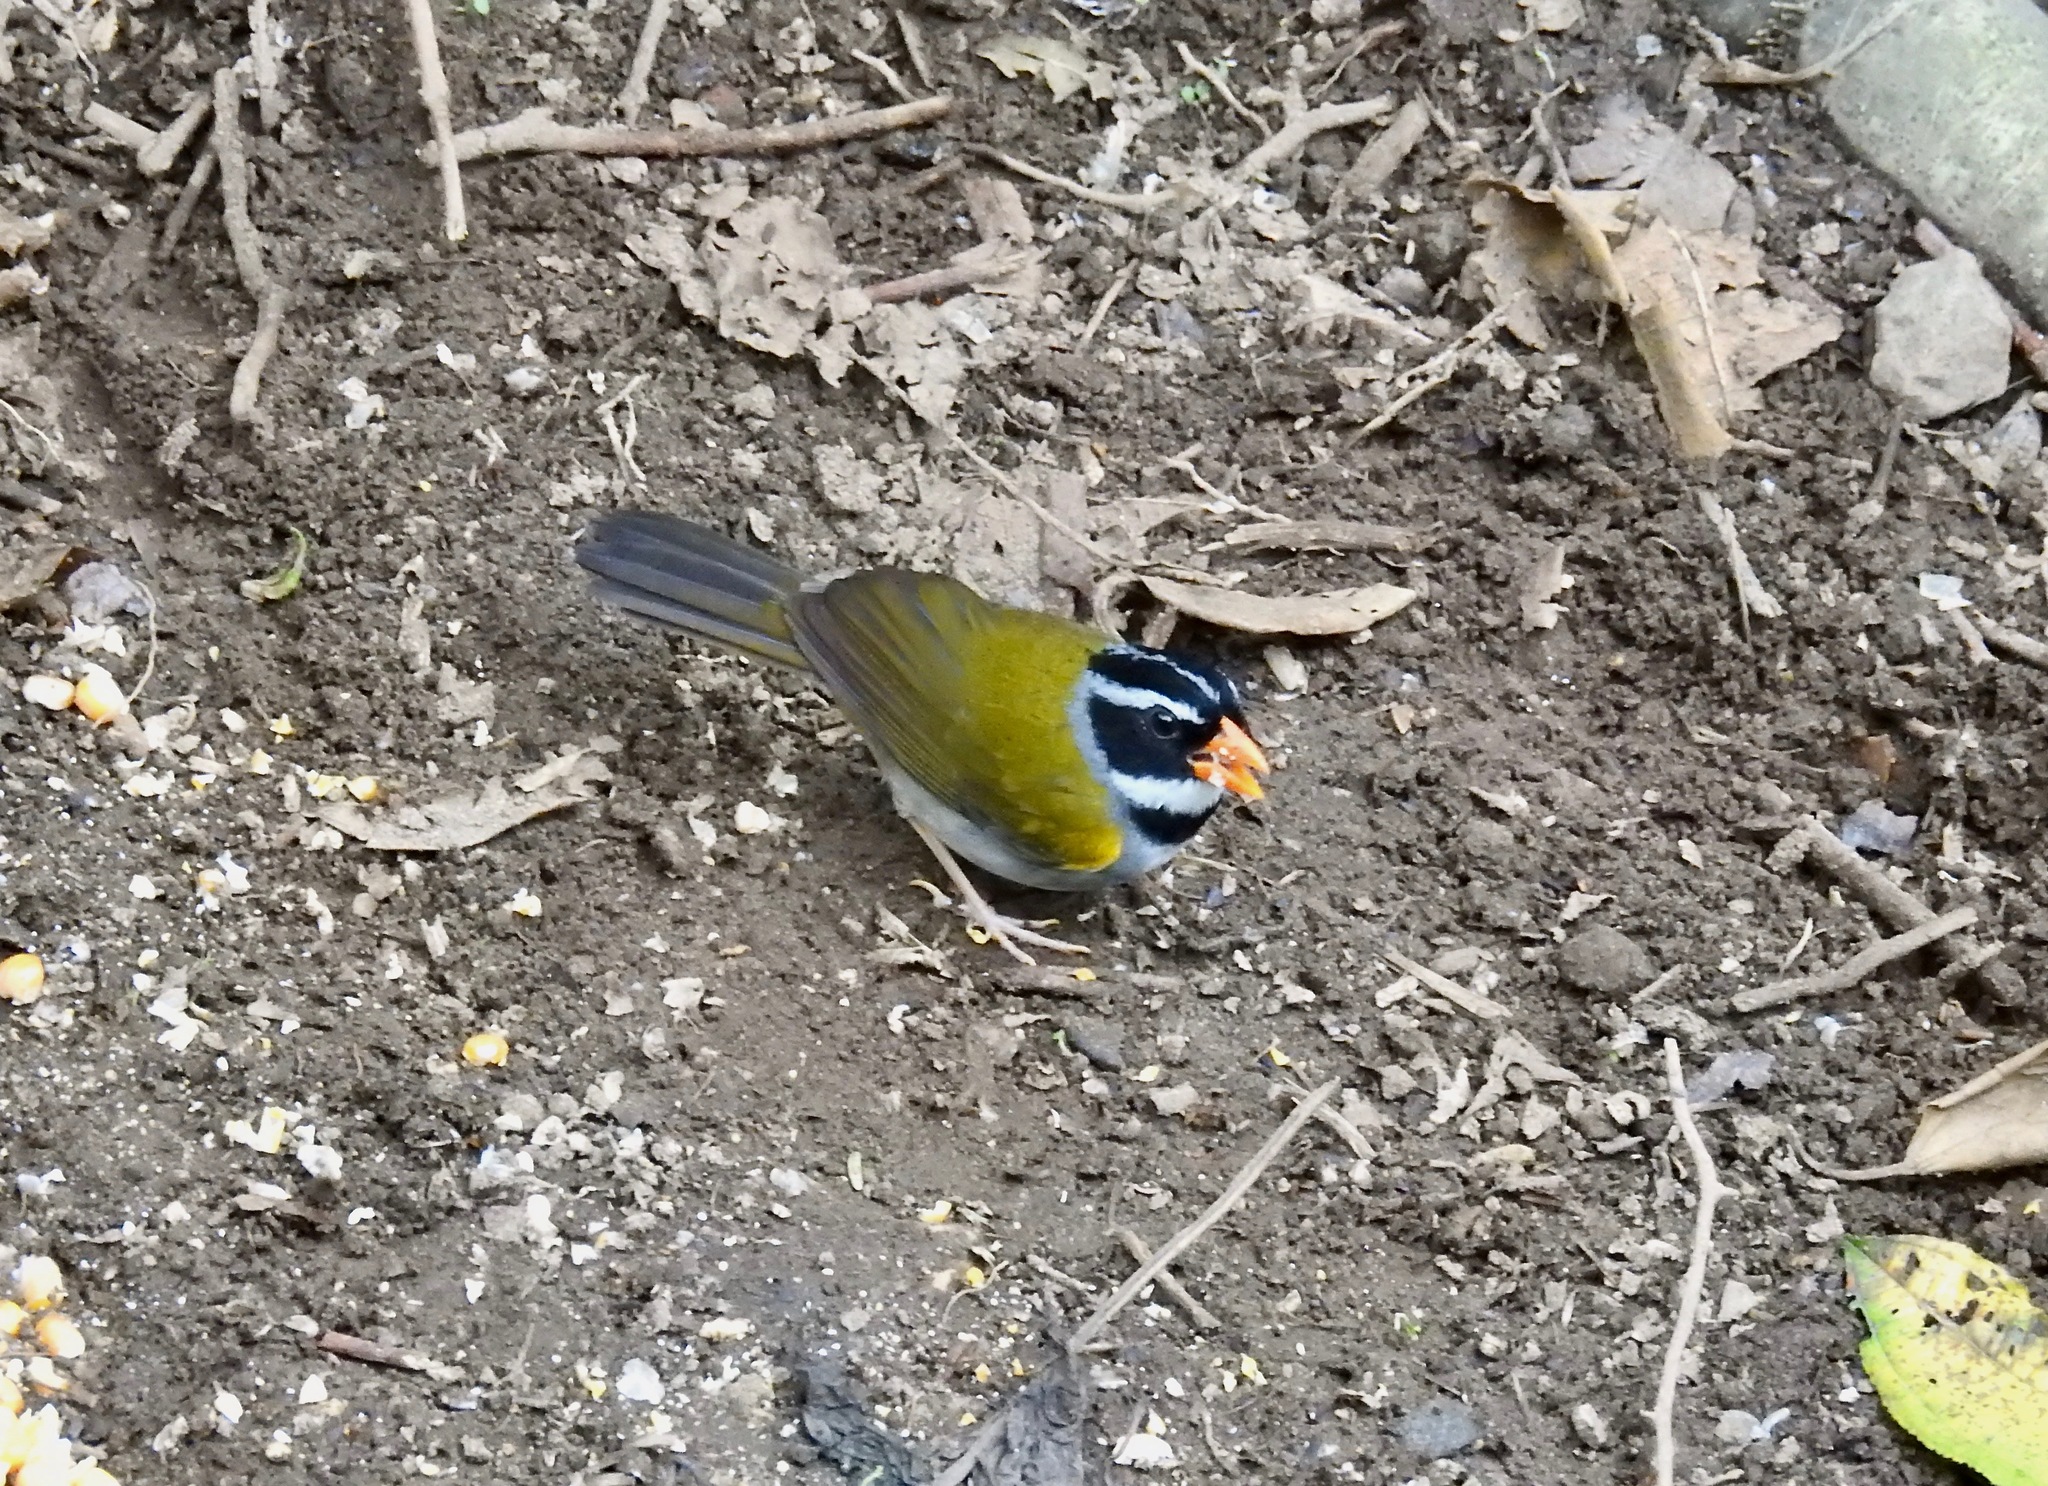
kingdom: Animalia
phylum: Chordata
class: Aves
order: Passeriformes
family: Passerellidae
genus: Arremon
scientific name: Arremon aurantiirostris
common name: Orange-billed sparrow
